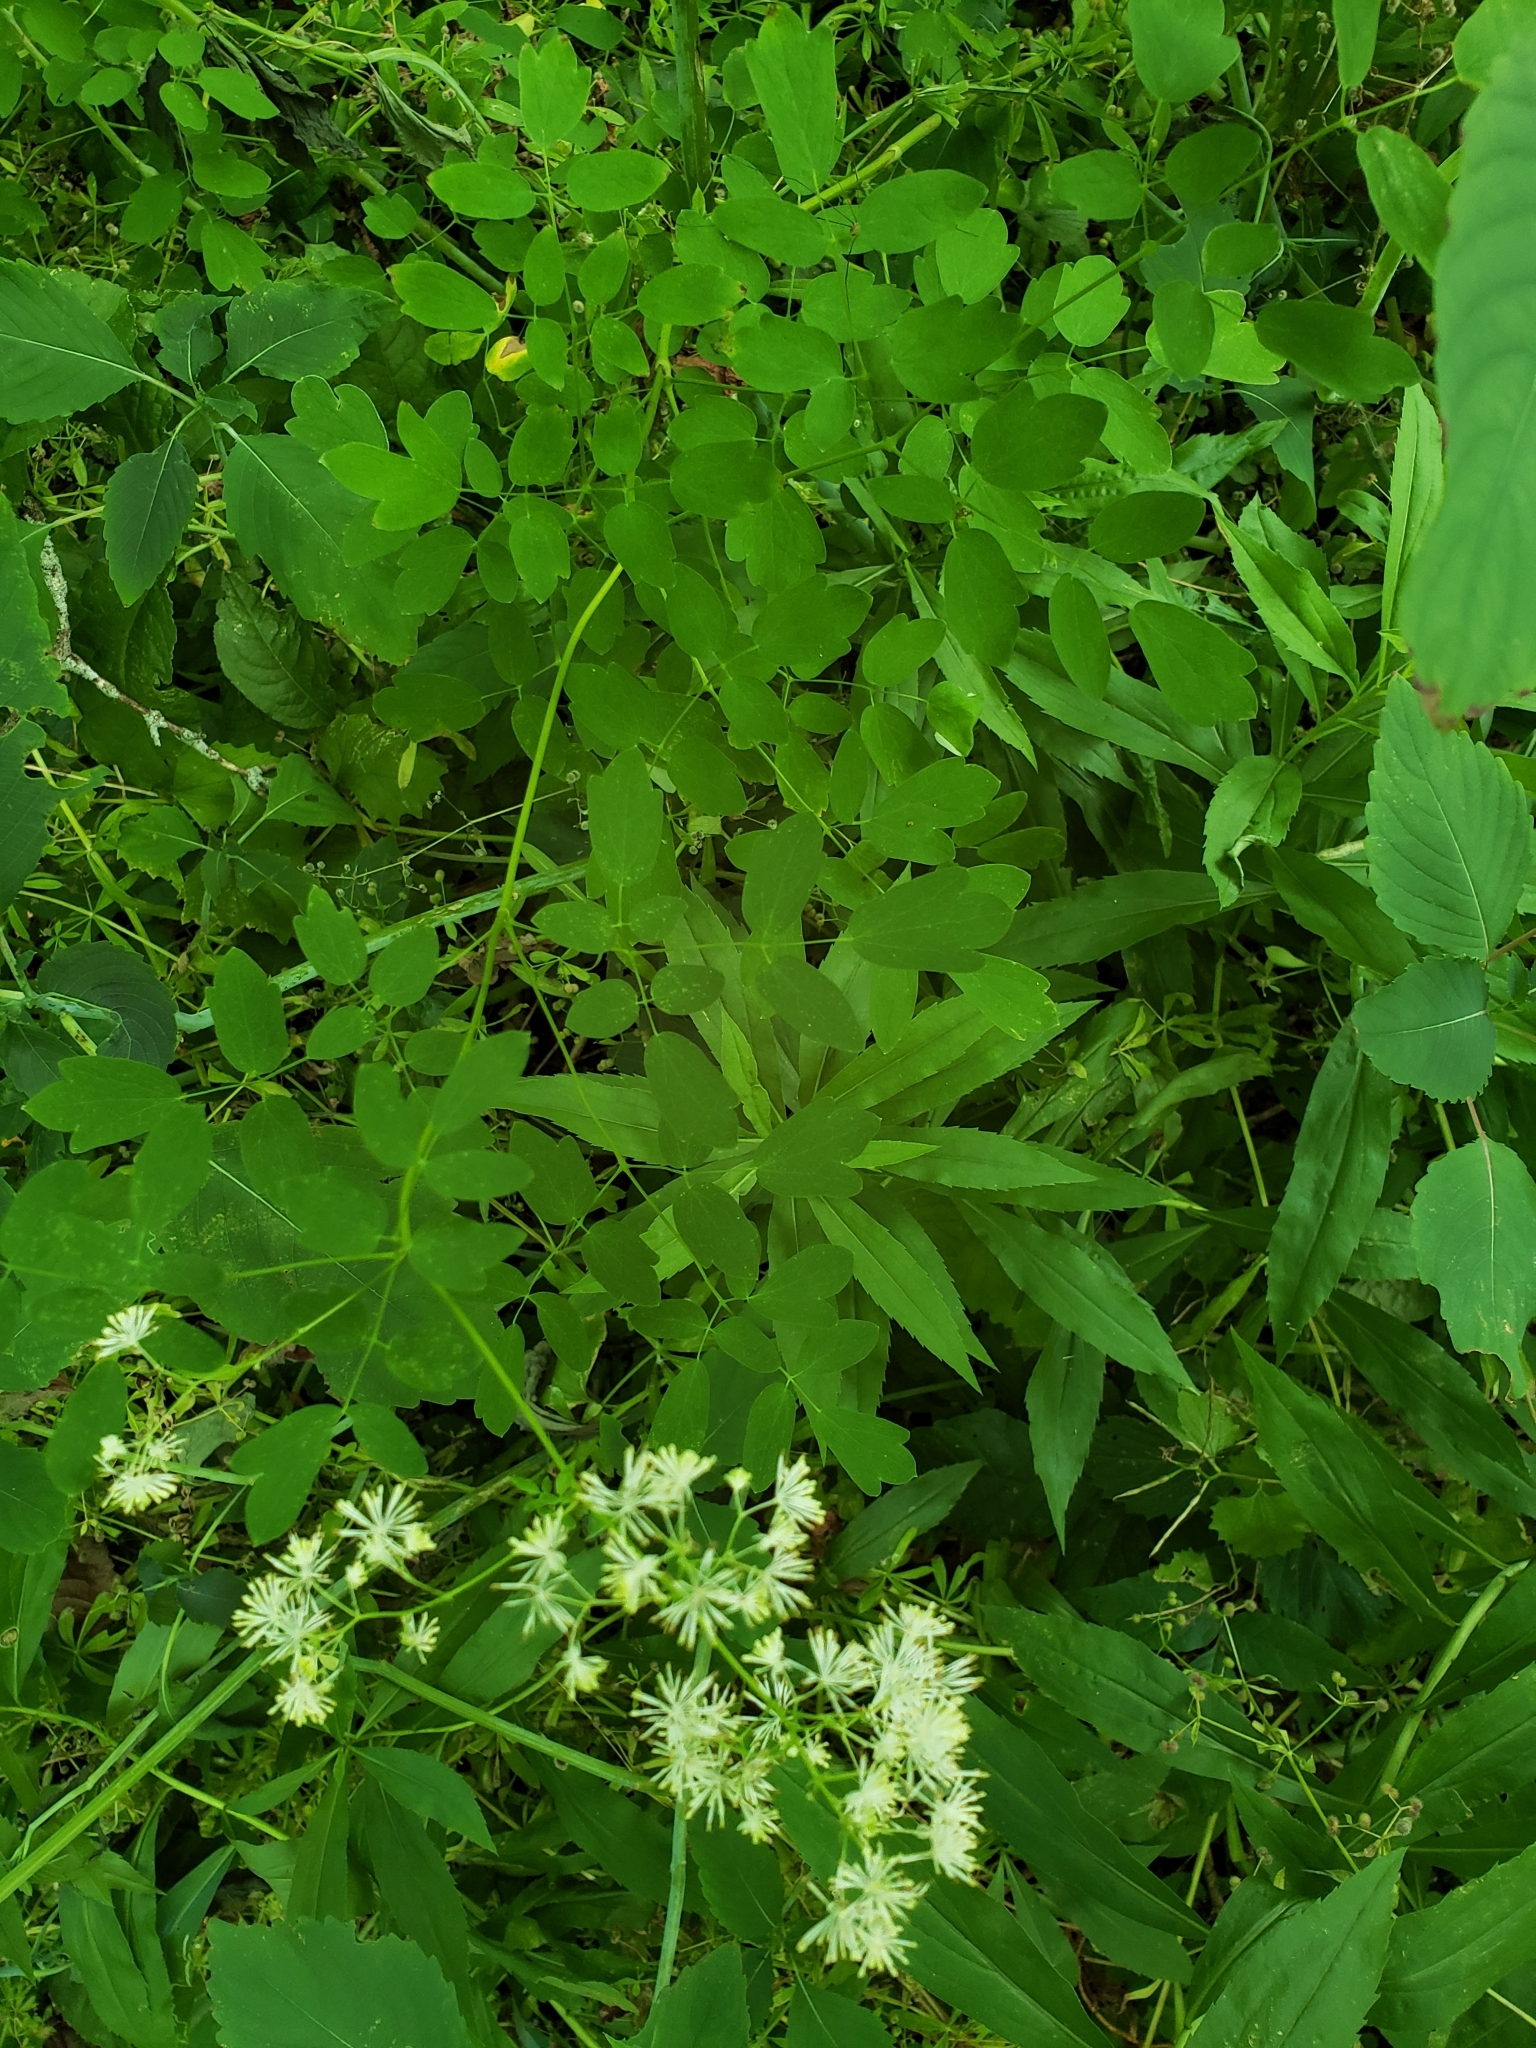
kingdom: Plantae
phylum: Tracheophyta
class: Magnoliopsida
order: Ranunculales
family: Ranunculaceae
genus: Thalictrum
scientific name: Thalictrum pubescens
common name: King-of-the-meadow
